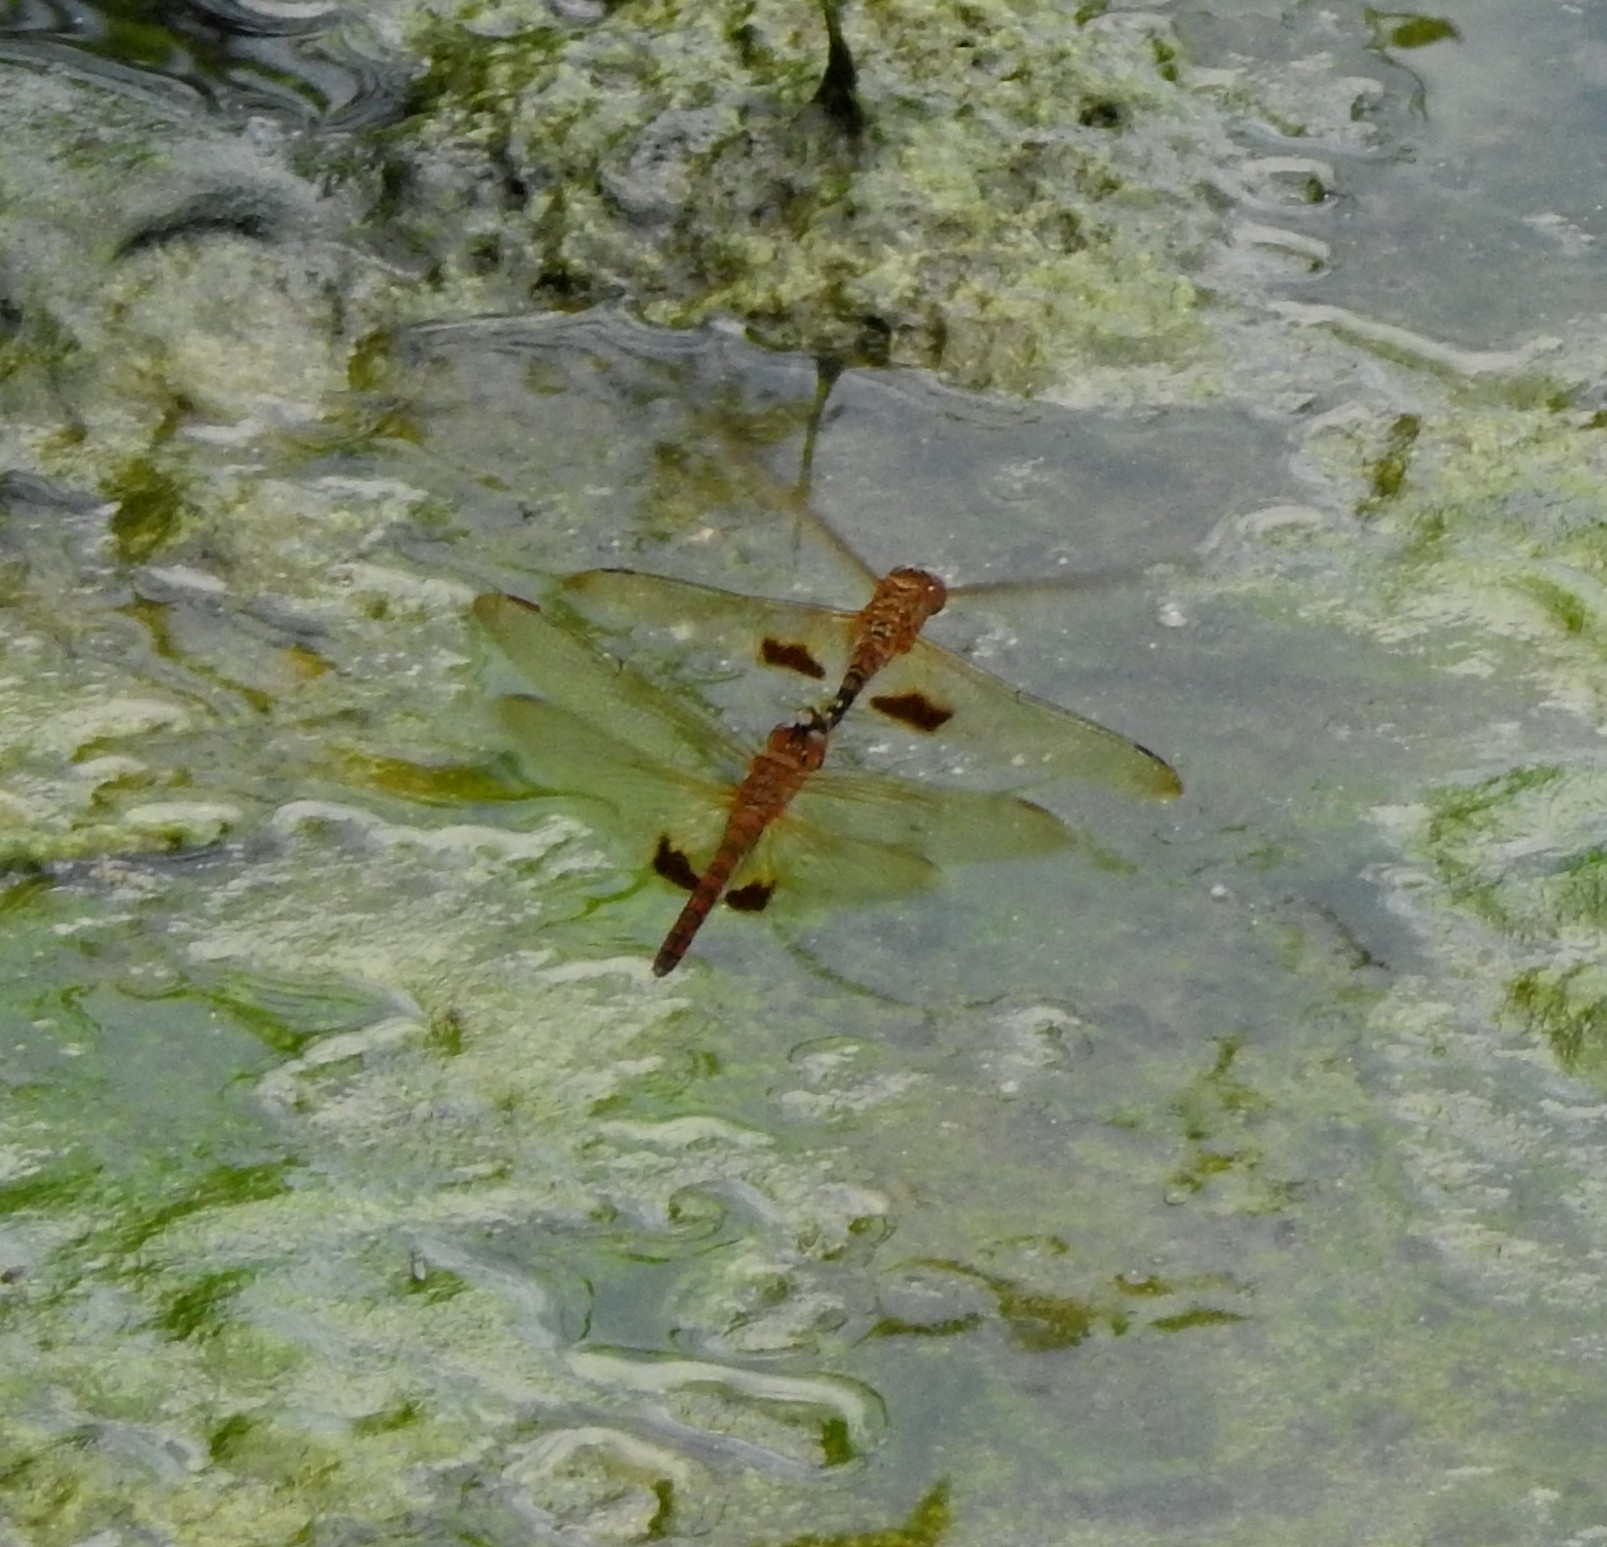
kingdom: Animalia
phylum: Arthropoda
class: Insecta
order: Odonata
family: Libellulidae
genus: Hydrobasileus
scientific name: Hydrobasileus croceus
